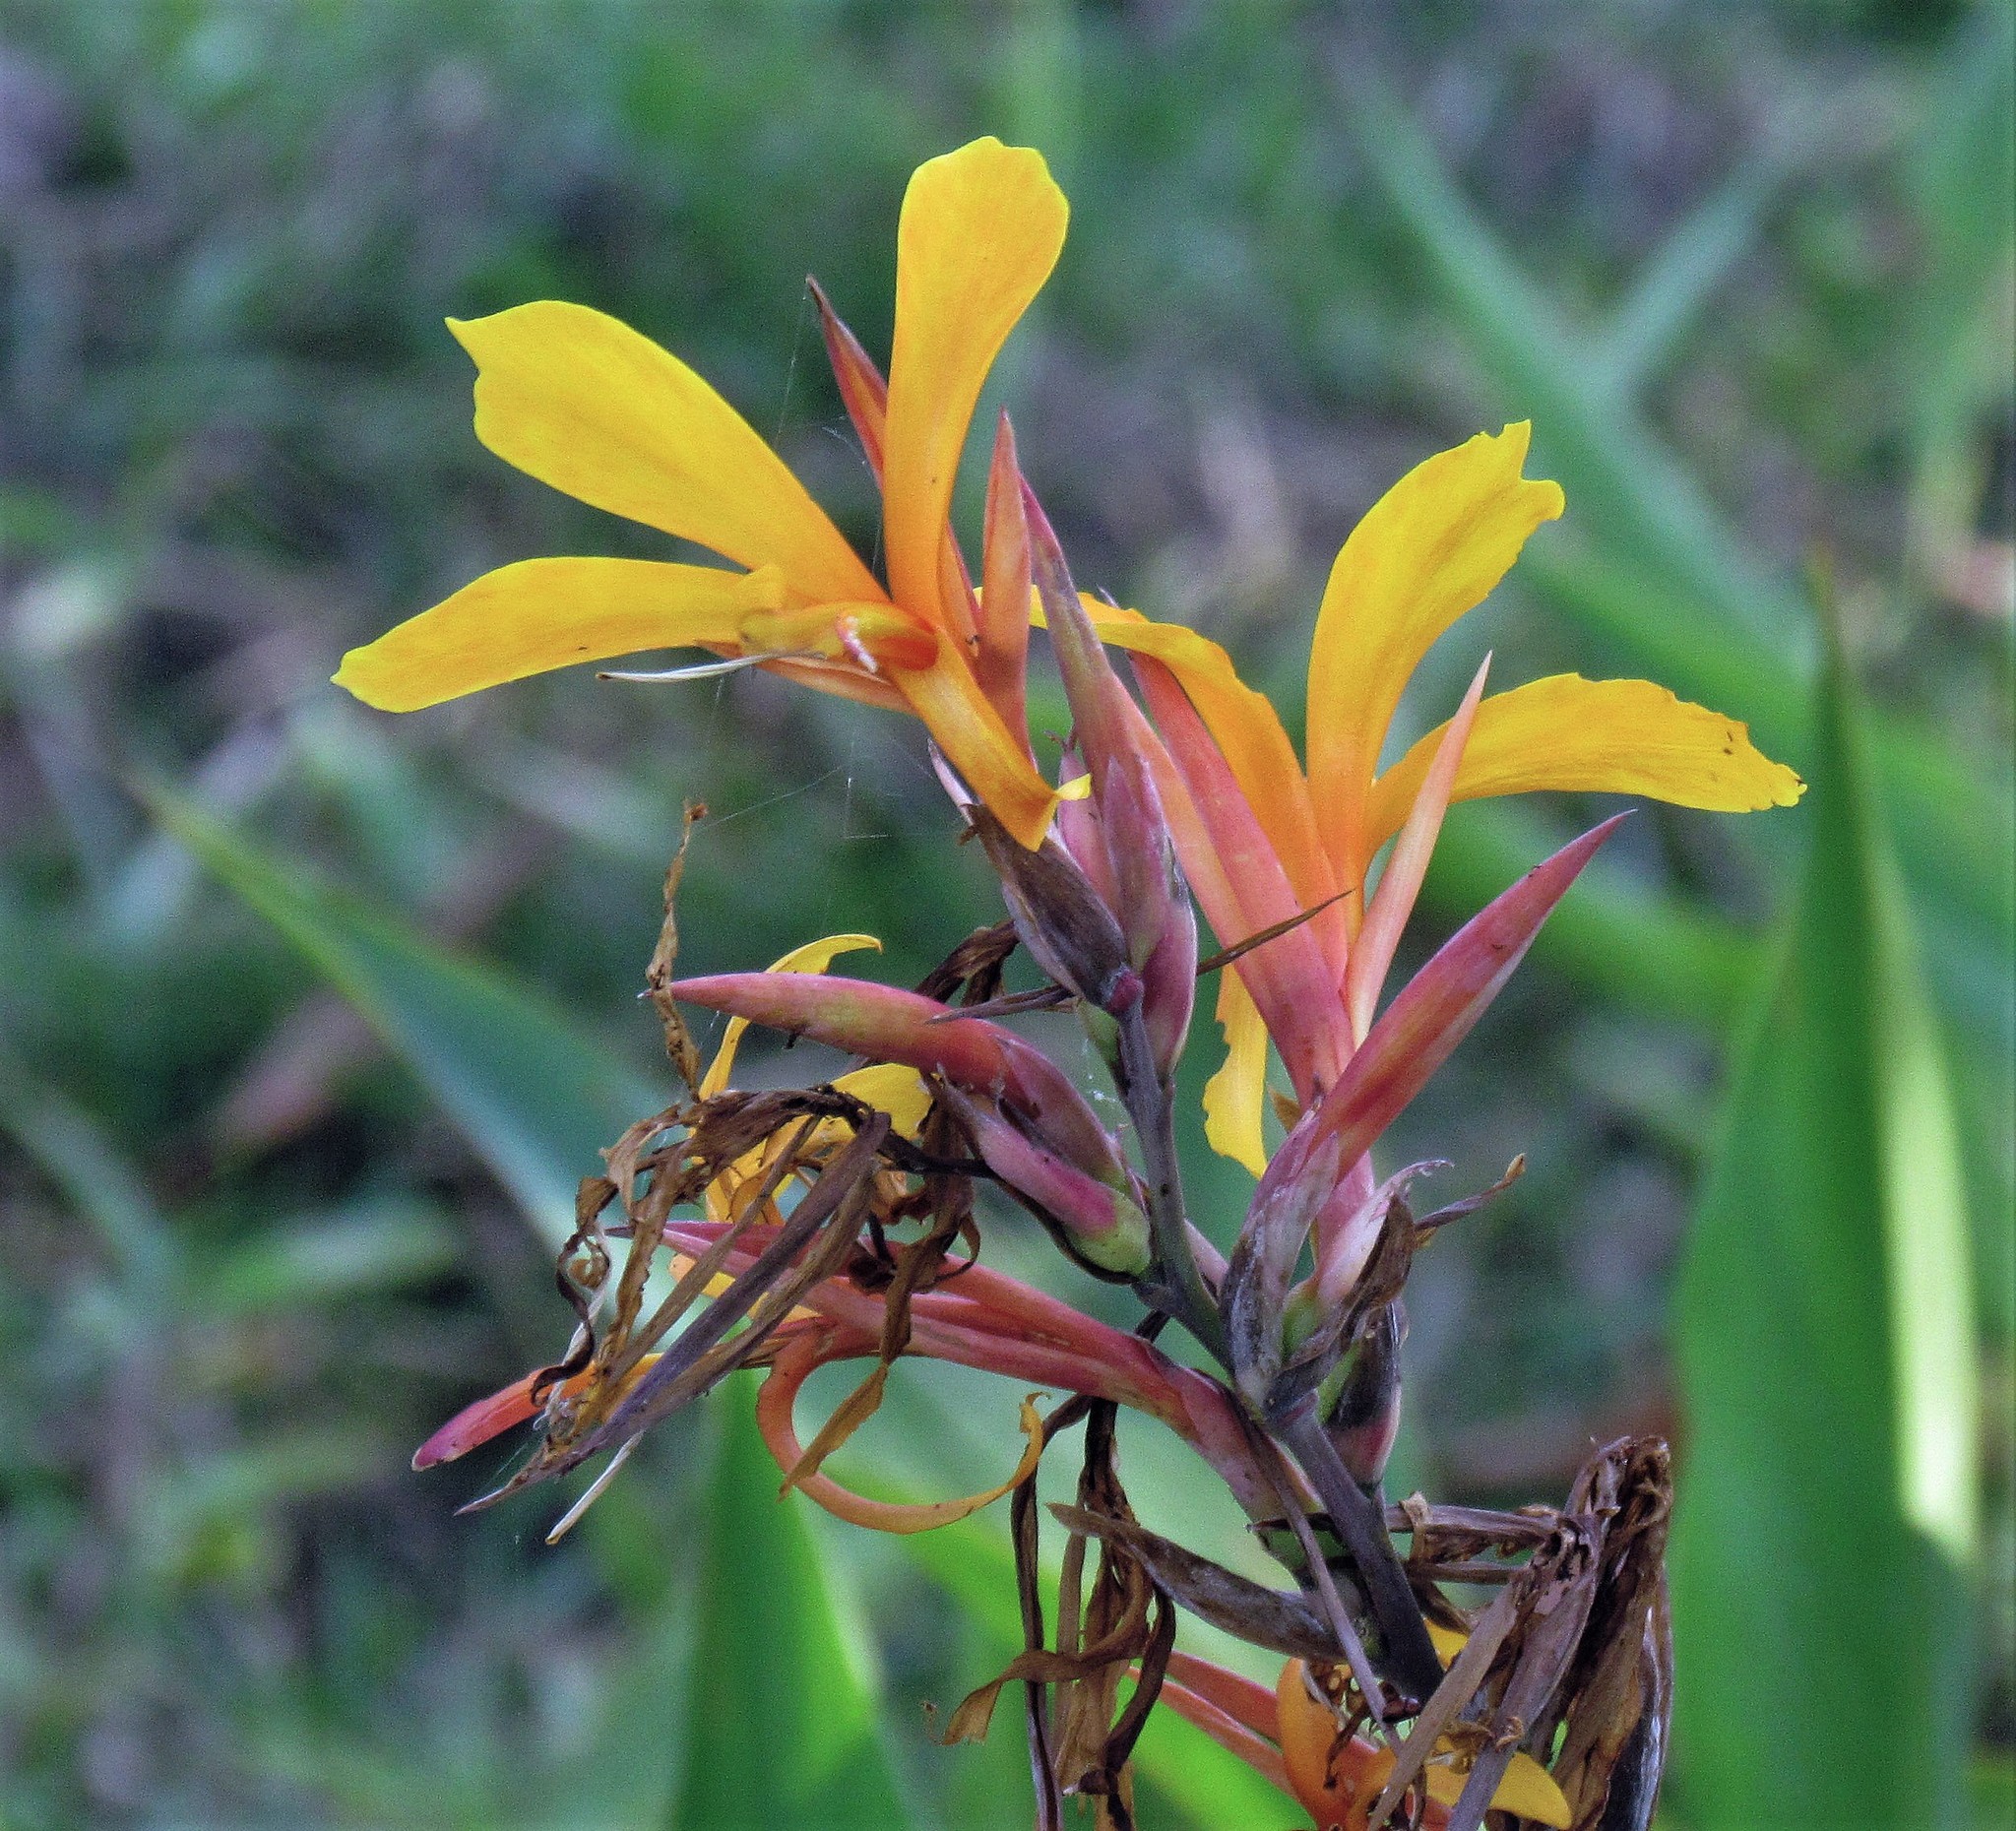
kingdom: Plantae
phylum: Tracheophyta
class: Liliopsida
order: Zingiberales
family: Cannaceae
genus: Canna
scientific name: Canna glauca
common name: Louisiana canna
